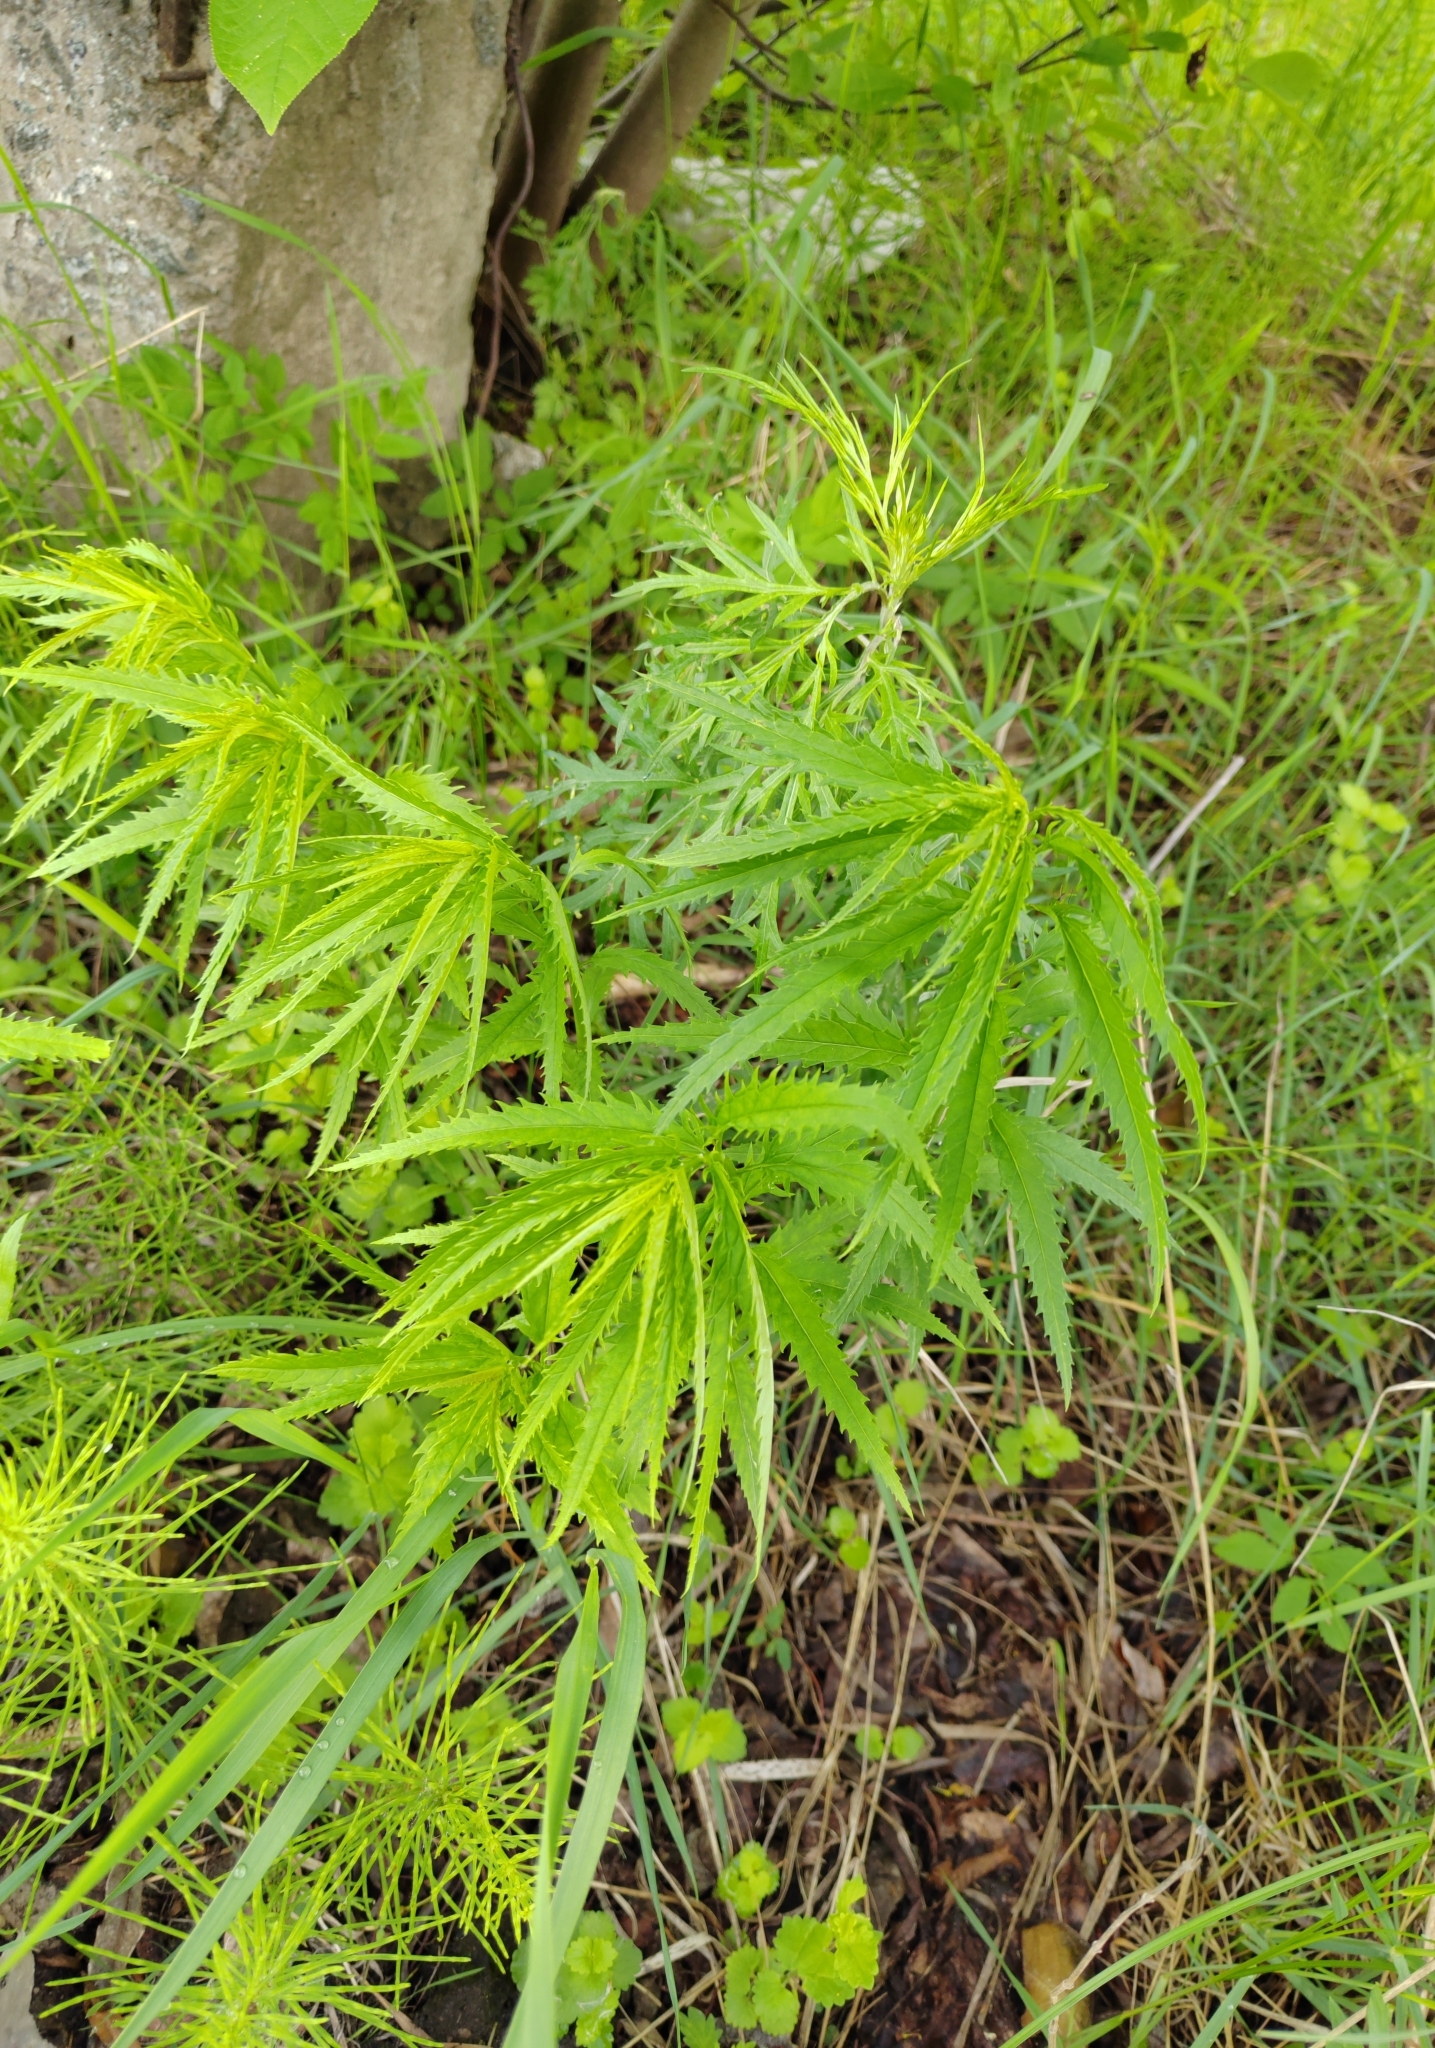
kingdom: Plantae
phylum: Tracheophyta
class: Magnoliopsida
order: Lamiales
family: Plantaginaceae
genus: Veronica
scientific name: Veronica longifolia
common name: Garden speedwell
